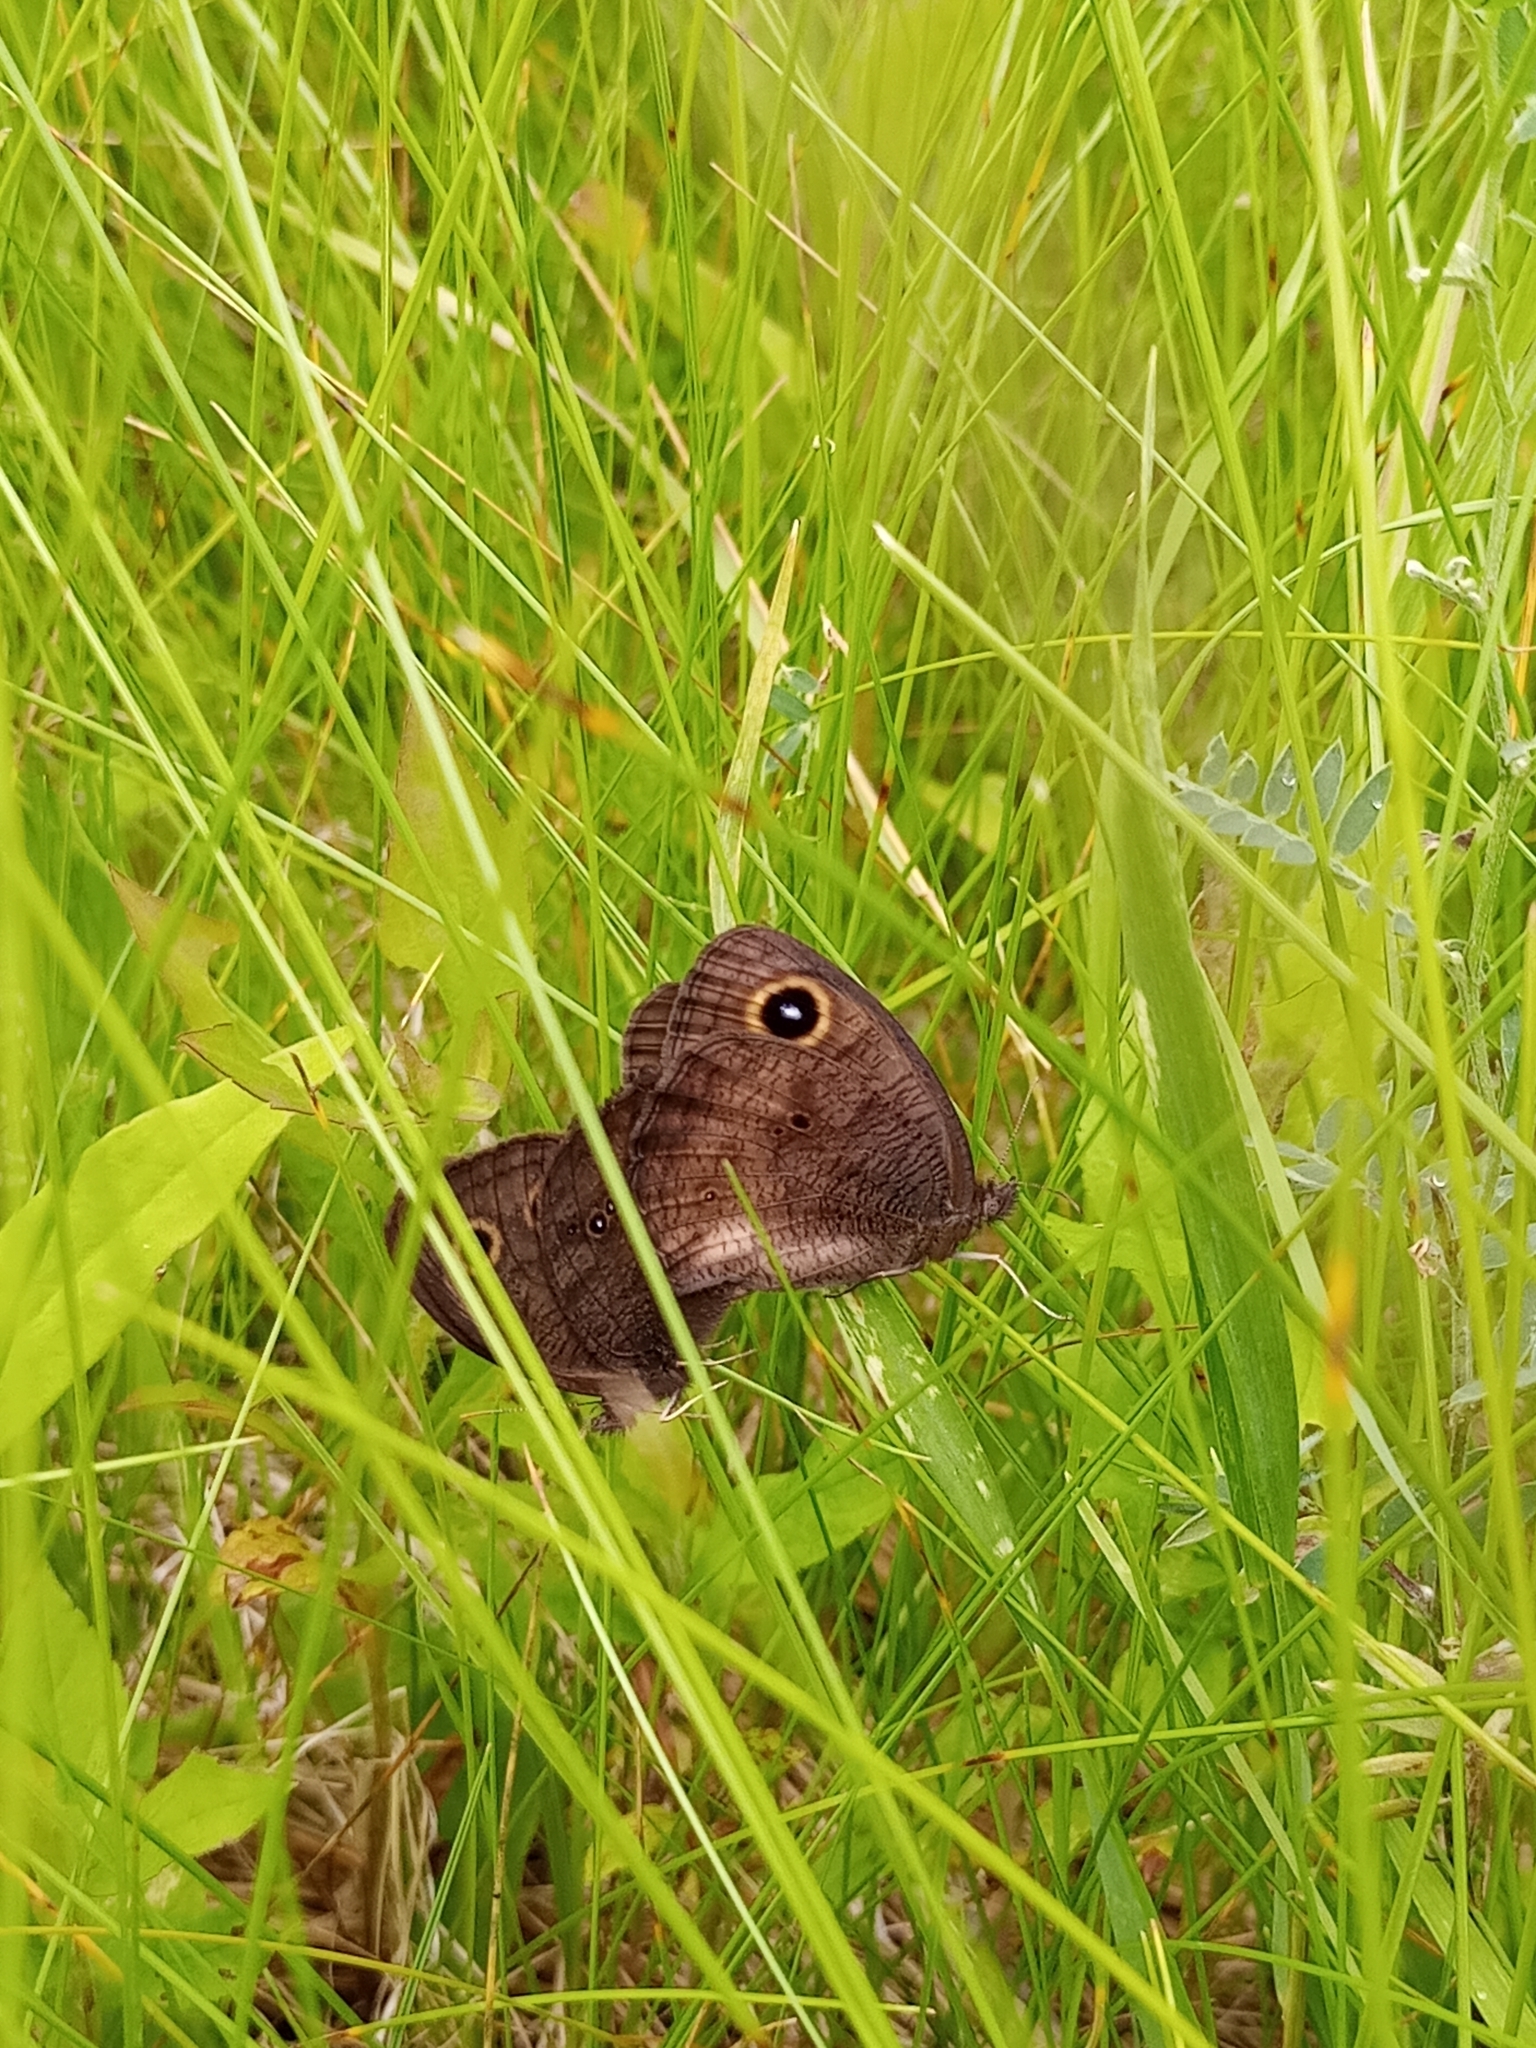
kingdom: Animalia
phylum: Arthropoda
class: Insecta
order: Lepidoptera
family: Nymphalidae
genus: Cercyonis
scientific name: Cercyonis pegala
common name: Common wood-nymph
